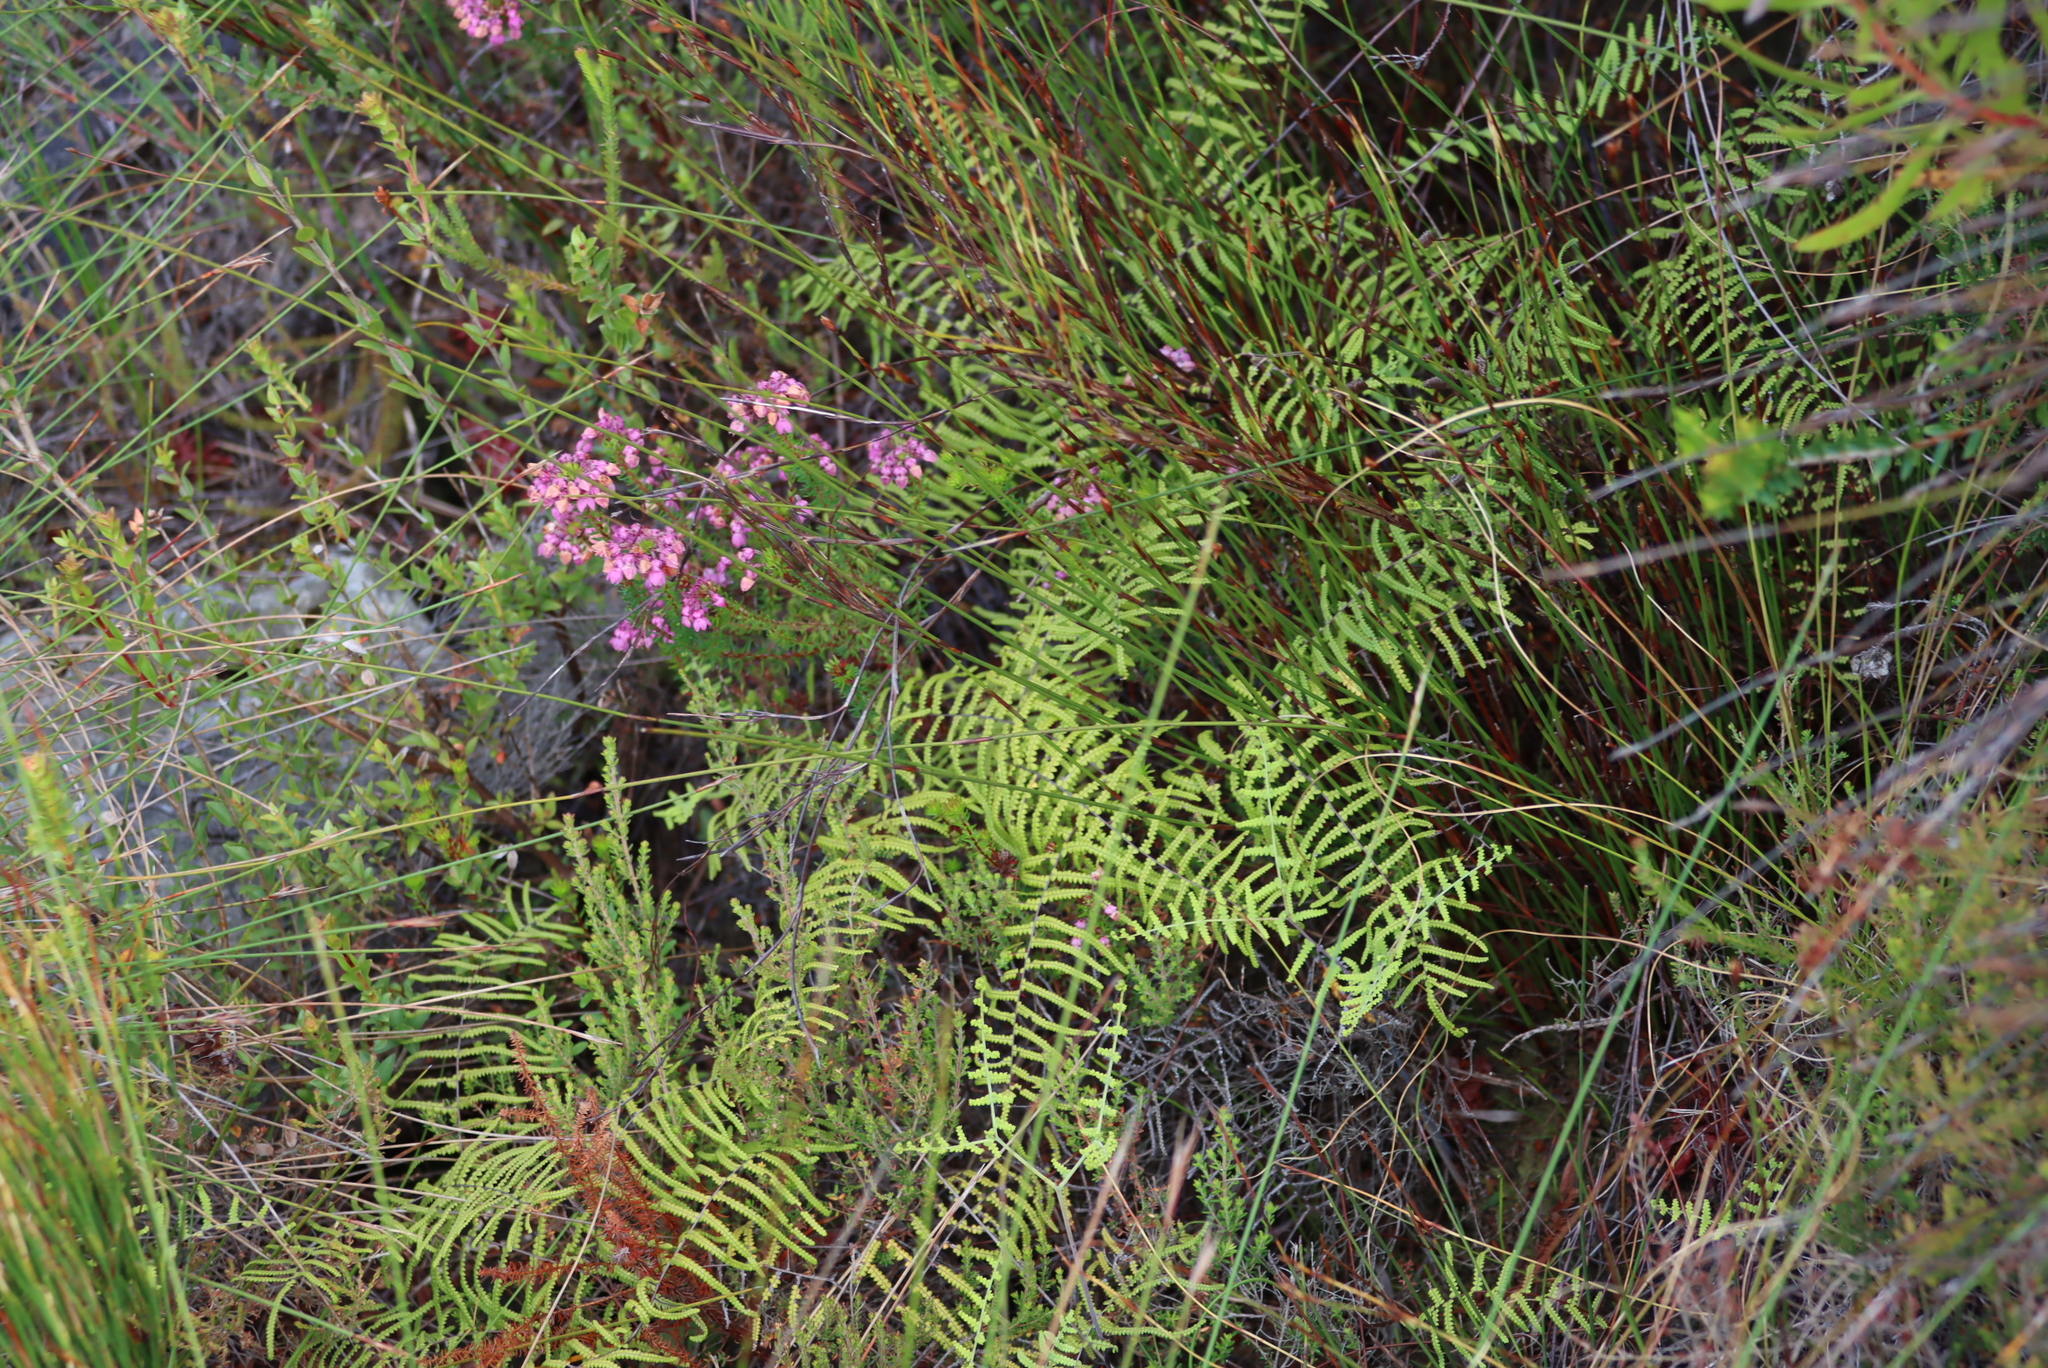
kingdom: Plantae
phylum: Tracheophyta
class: Polypodiopsida
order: Gleicheniales
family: Gleicheniaceae
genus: Gleichenia
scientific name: Gleichenia polypodioides
